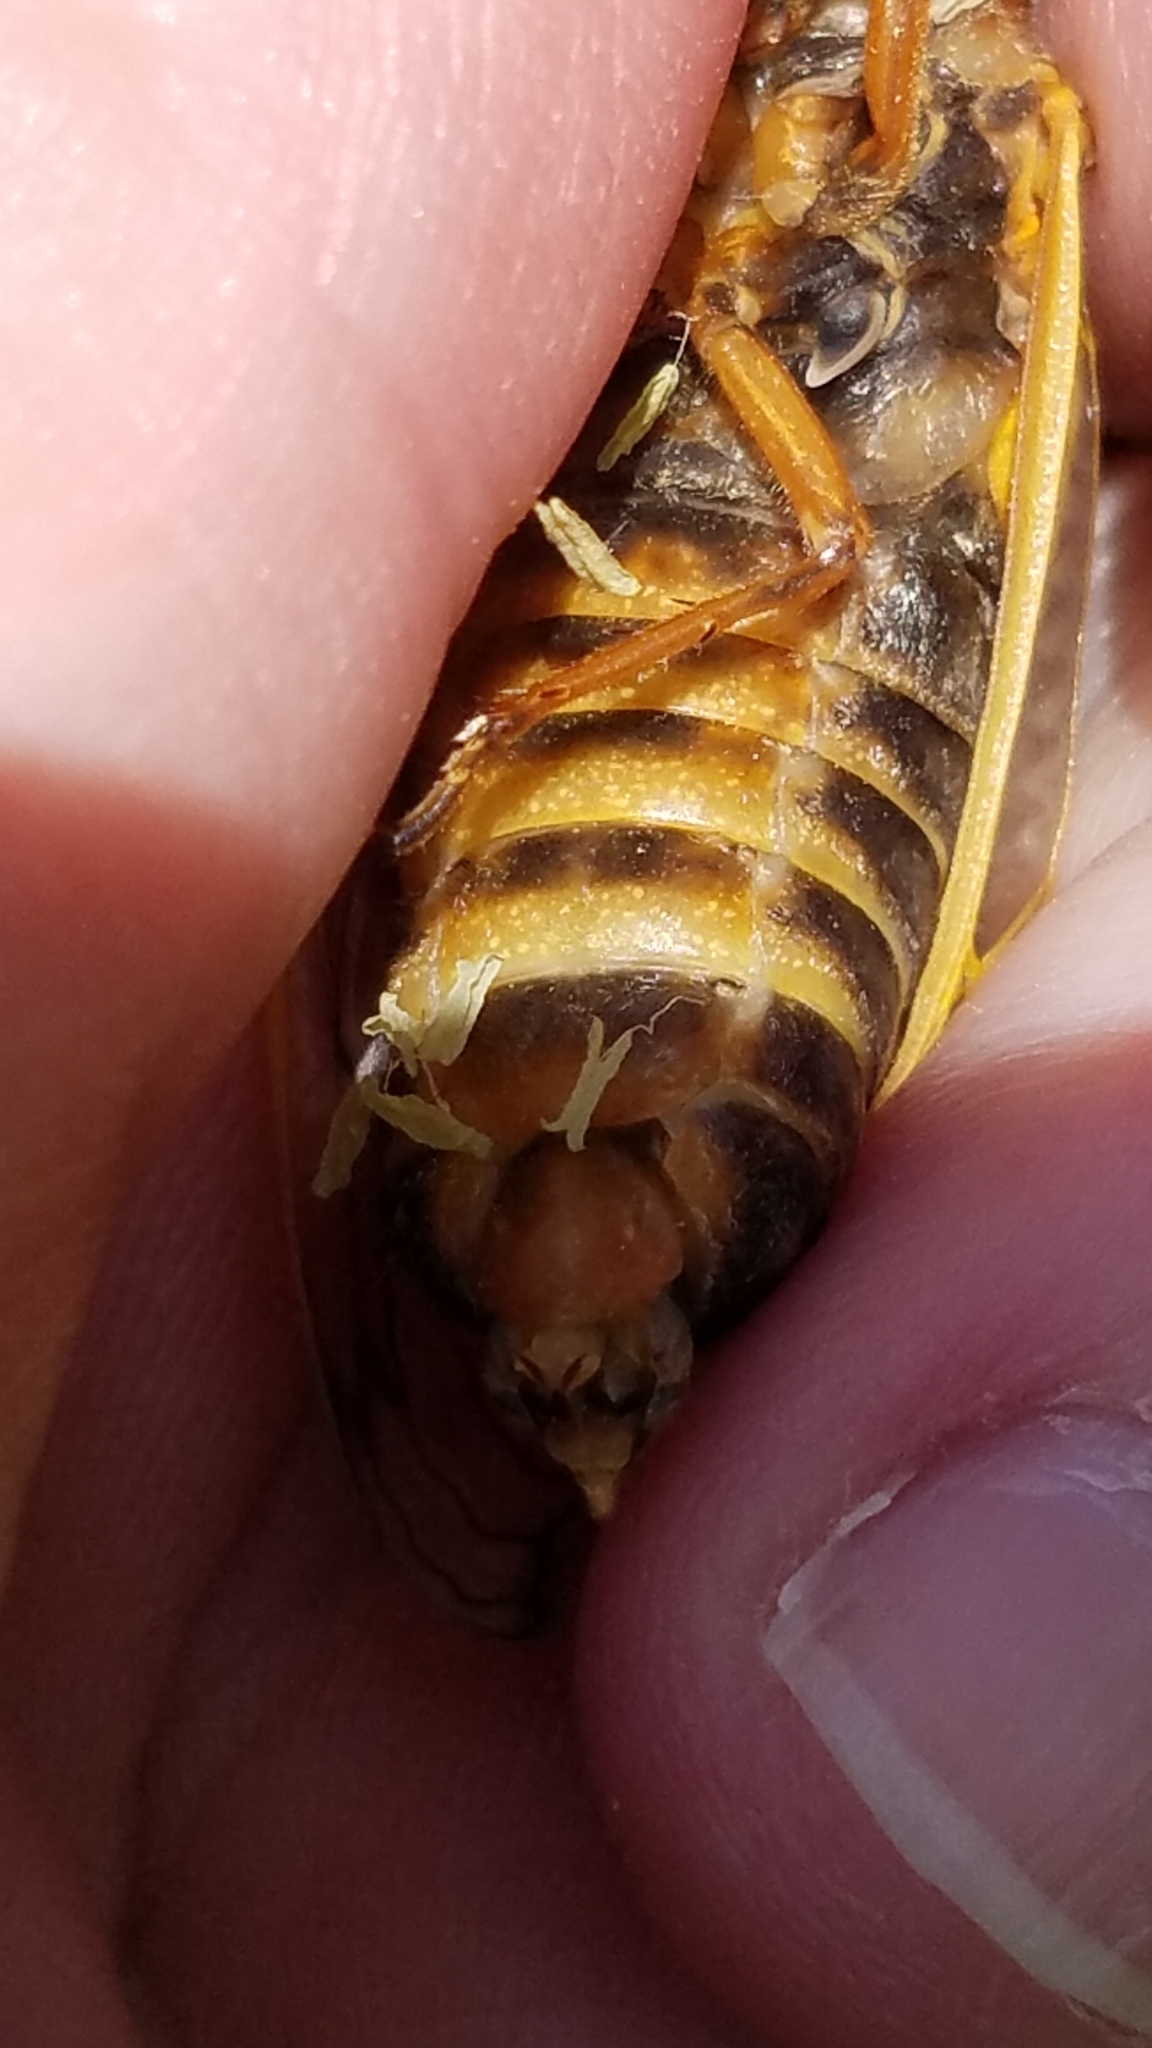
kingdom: Animalia
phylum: Arthropoda
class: Insecta
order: Hemiptera
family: Cicadidae
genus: Magicicada
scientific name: Magicicada septendecim
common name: Periodical cicada
